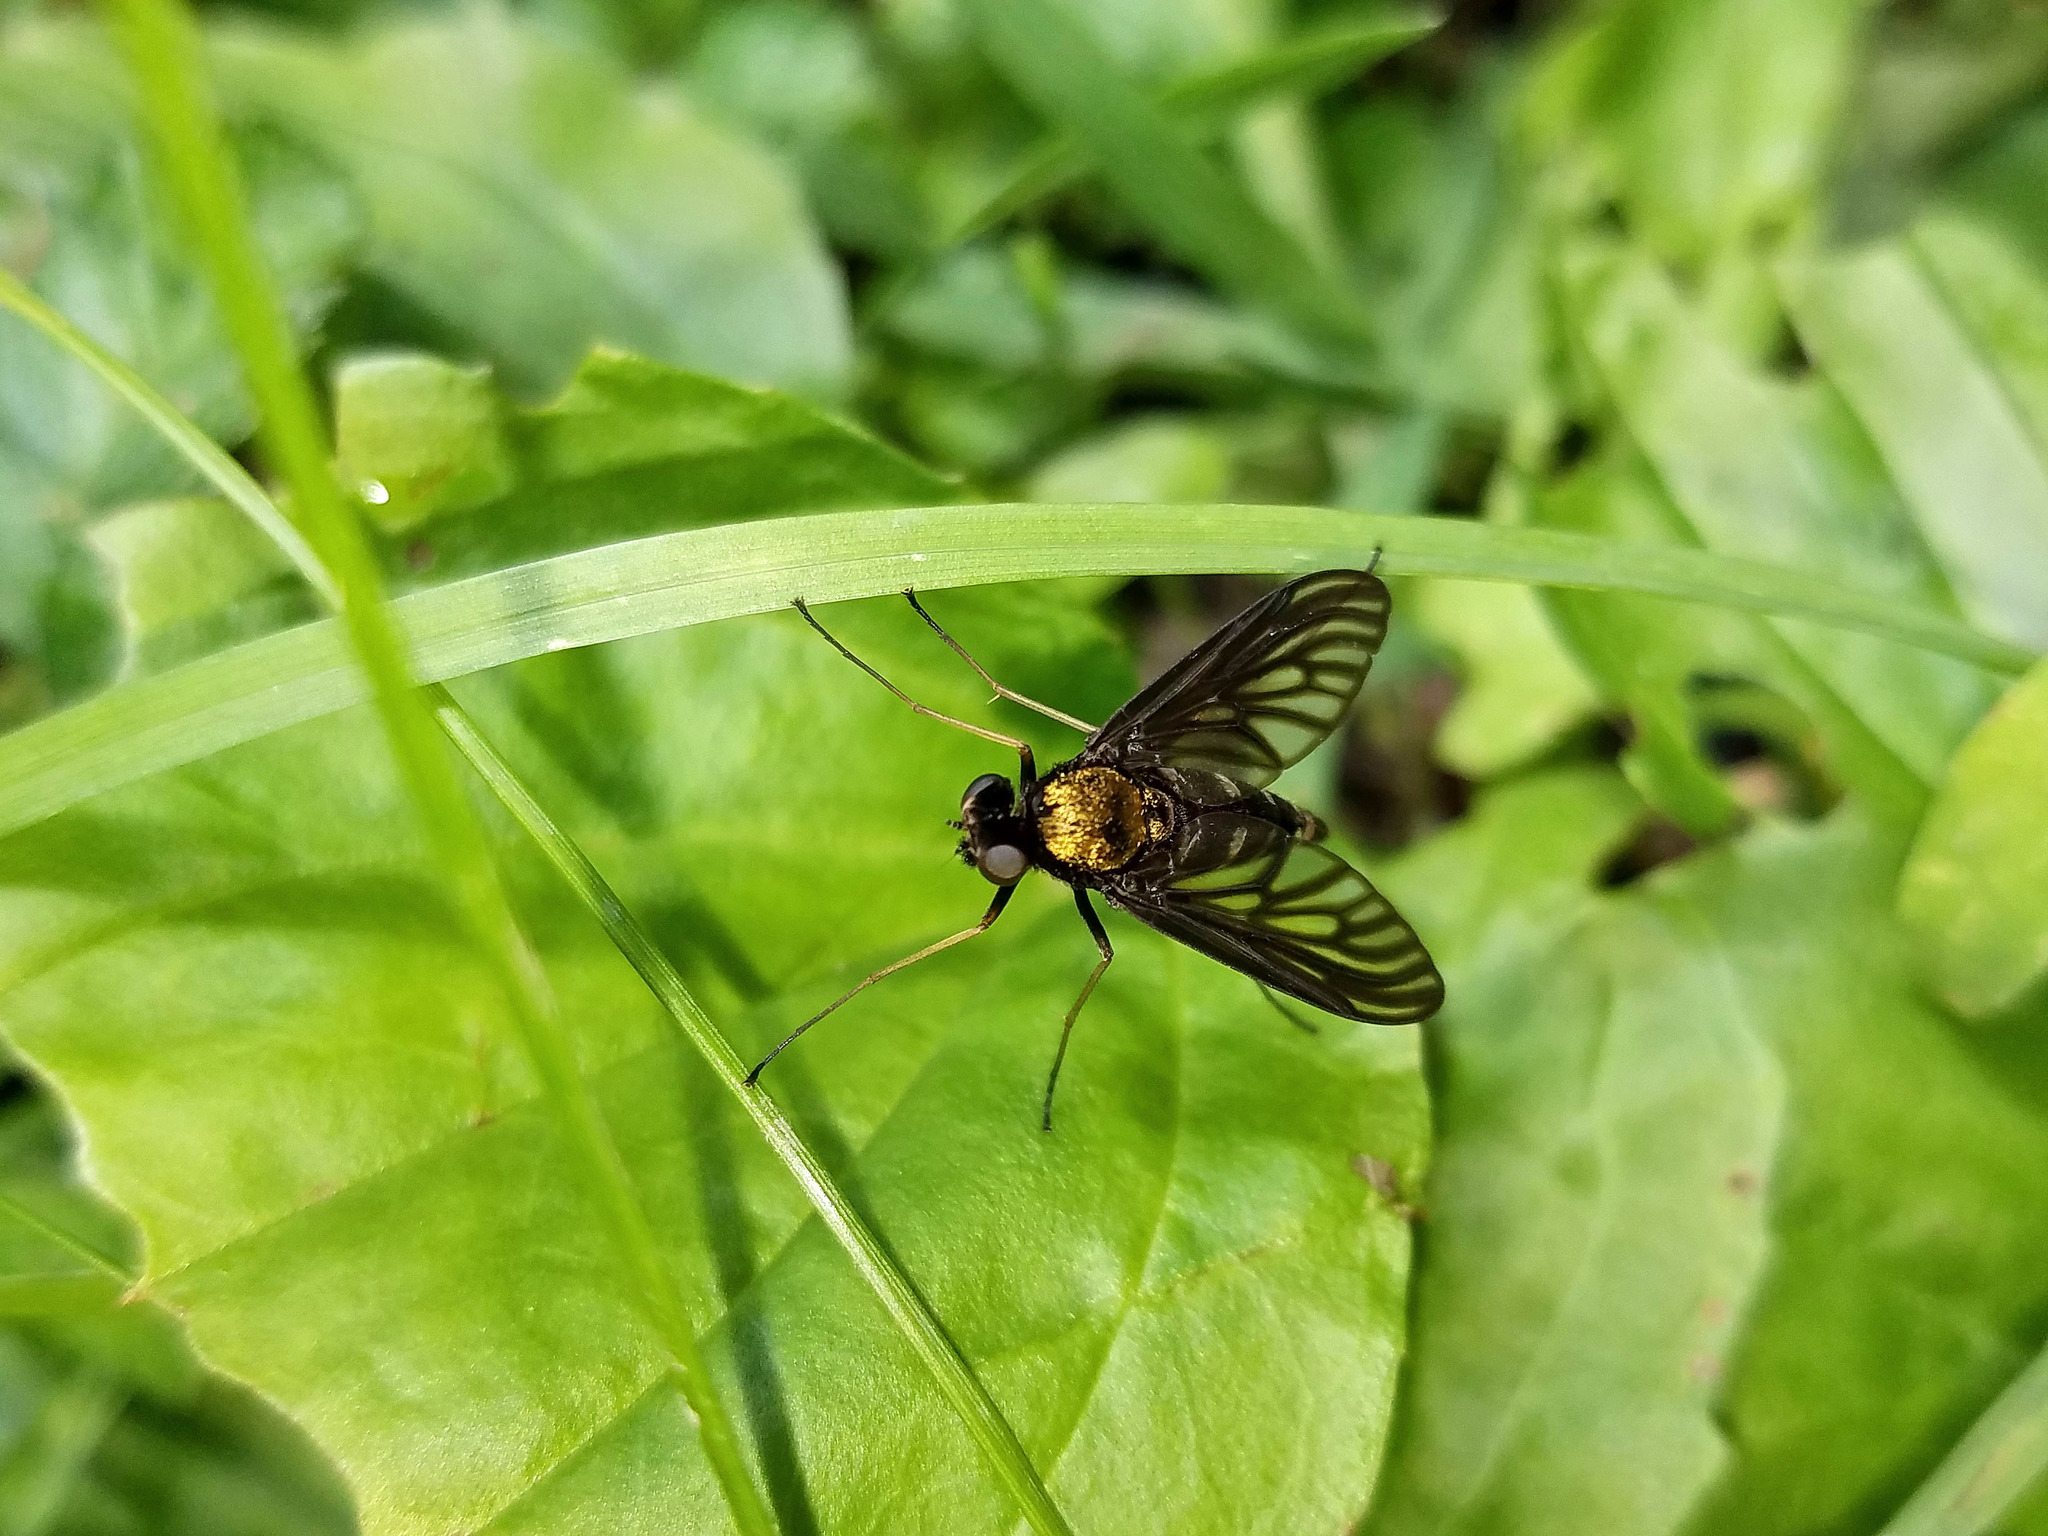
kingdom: Animalia
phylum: Arthropoda
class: Insecta
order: Diptera
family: Rhagionidae
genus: Chrysopilus
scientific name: Chrysopilus thoracicus
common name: Golden-backed snipe fly
